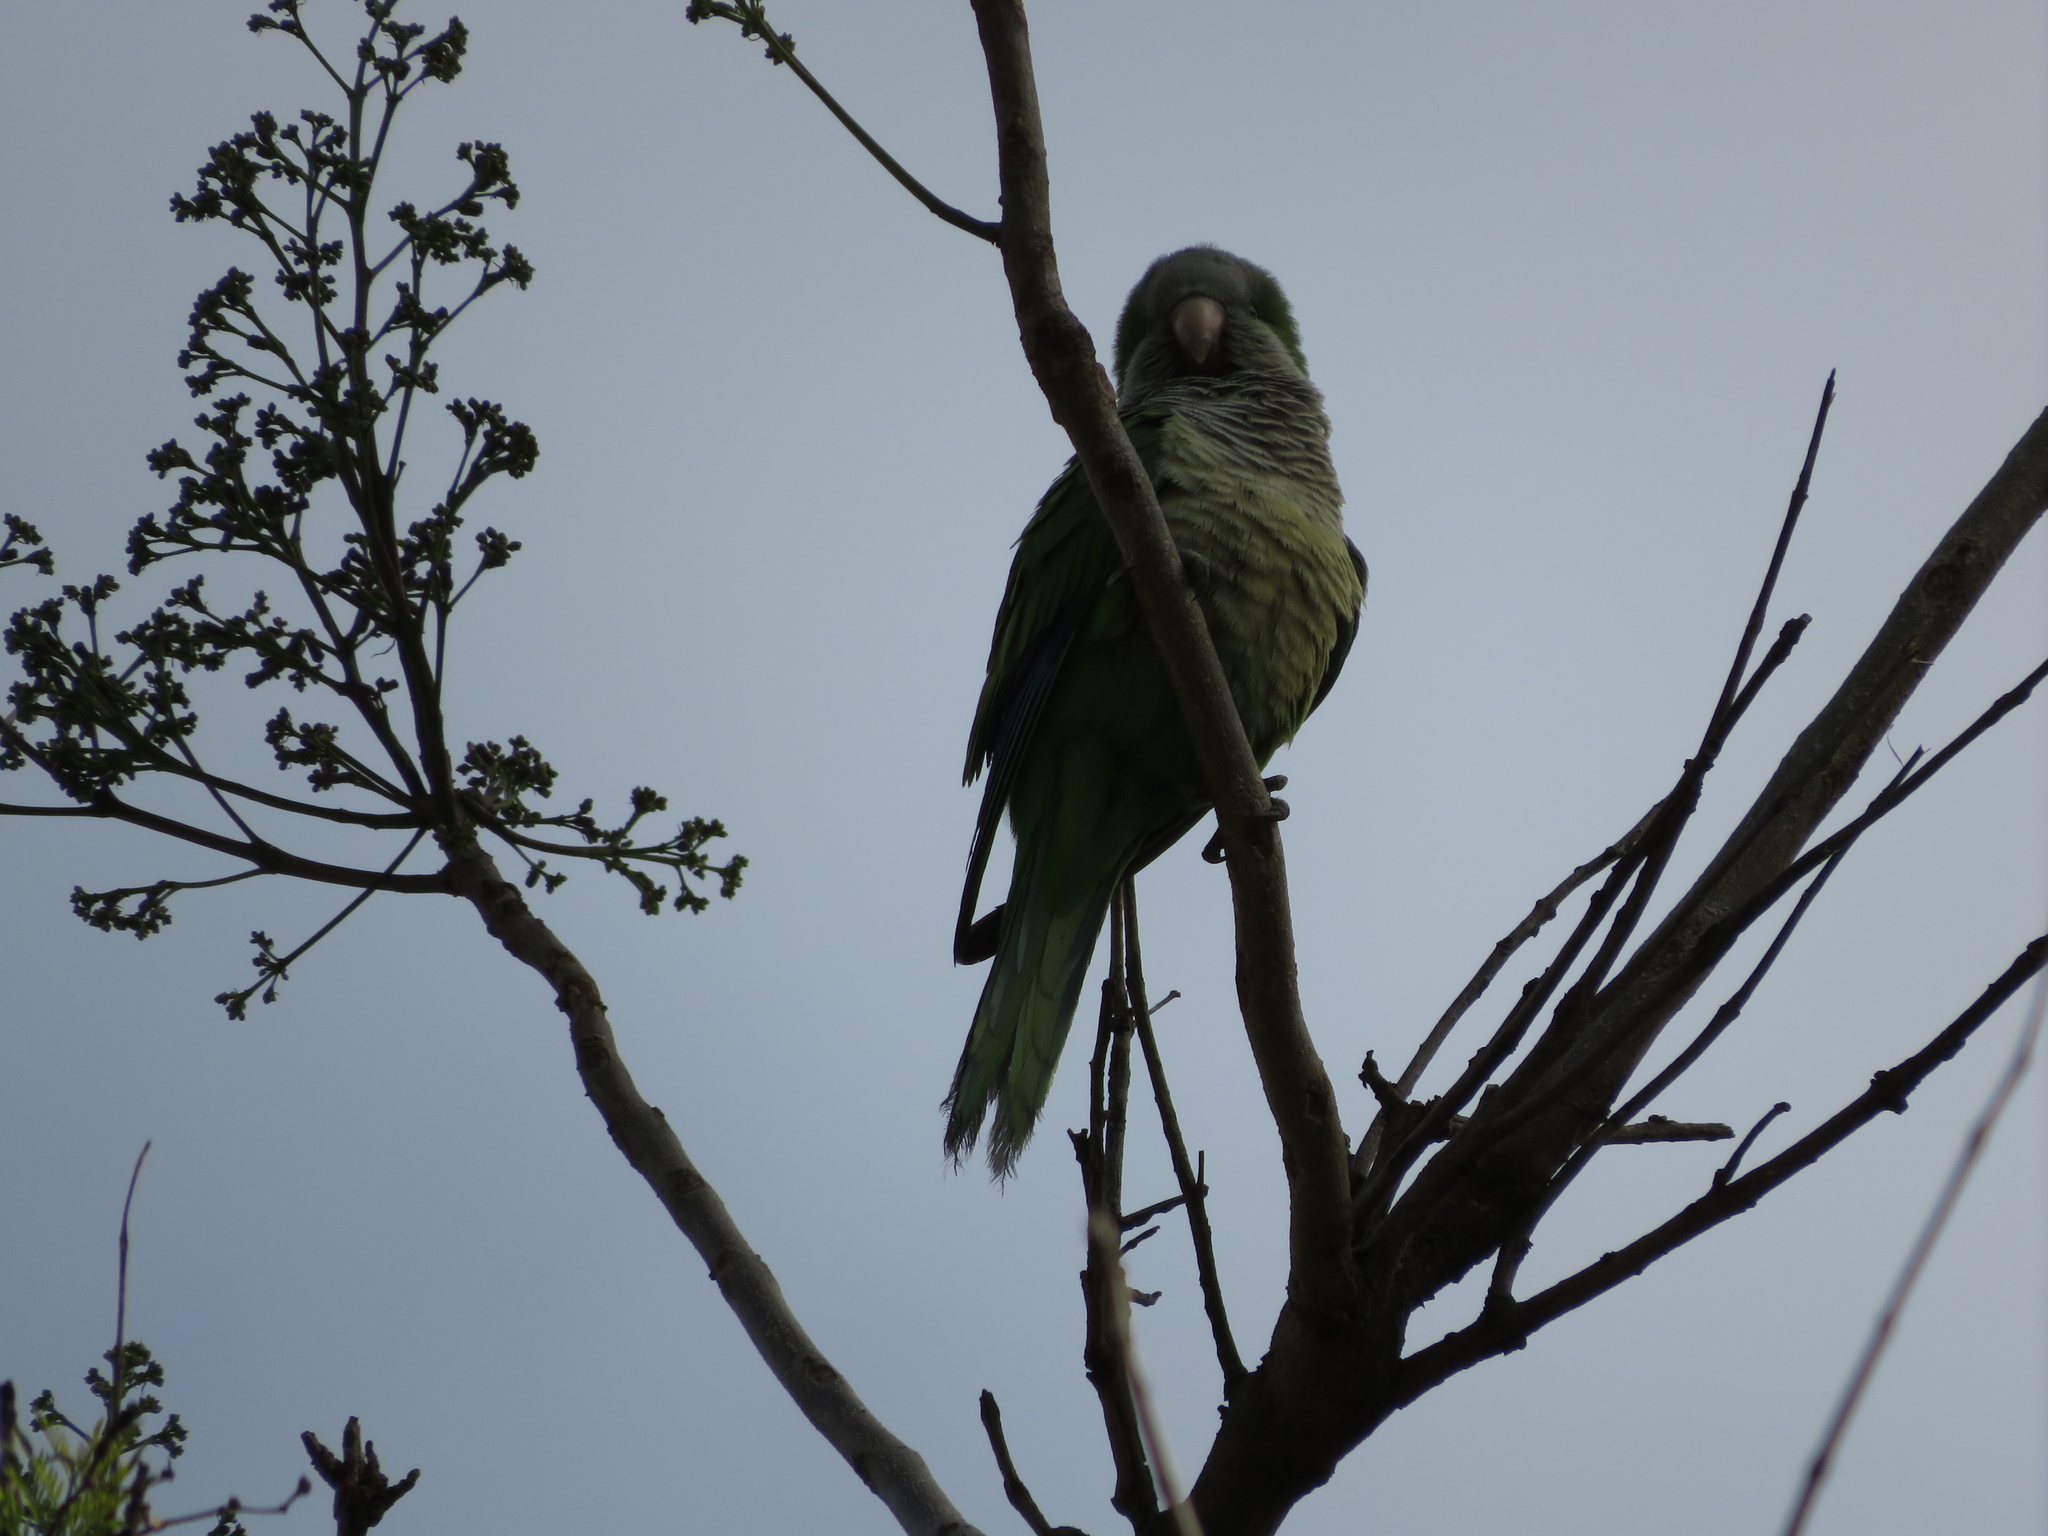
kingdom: Animalia
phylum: Chordata
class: Aves
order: Psittaciformes
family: Psittacidae
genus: Myiopsitta
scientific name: Myiopsitta monachus
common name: Monk parakeet
